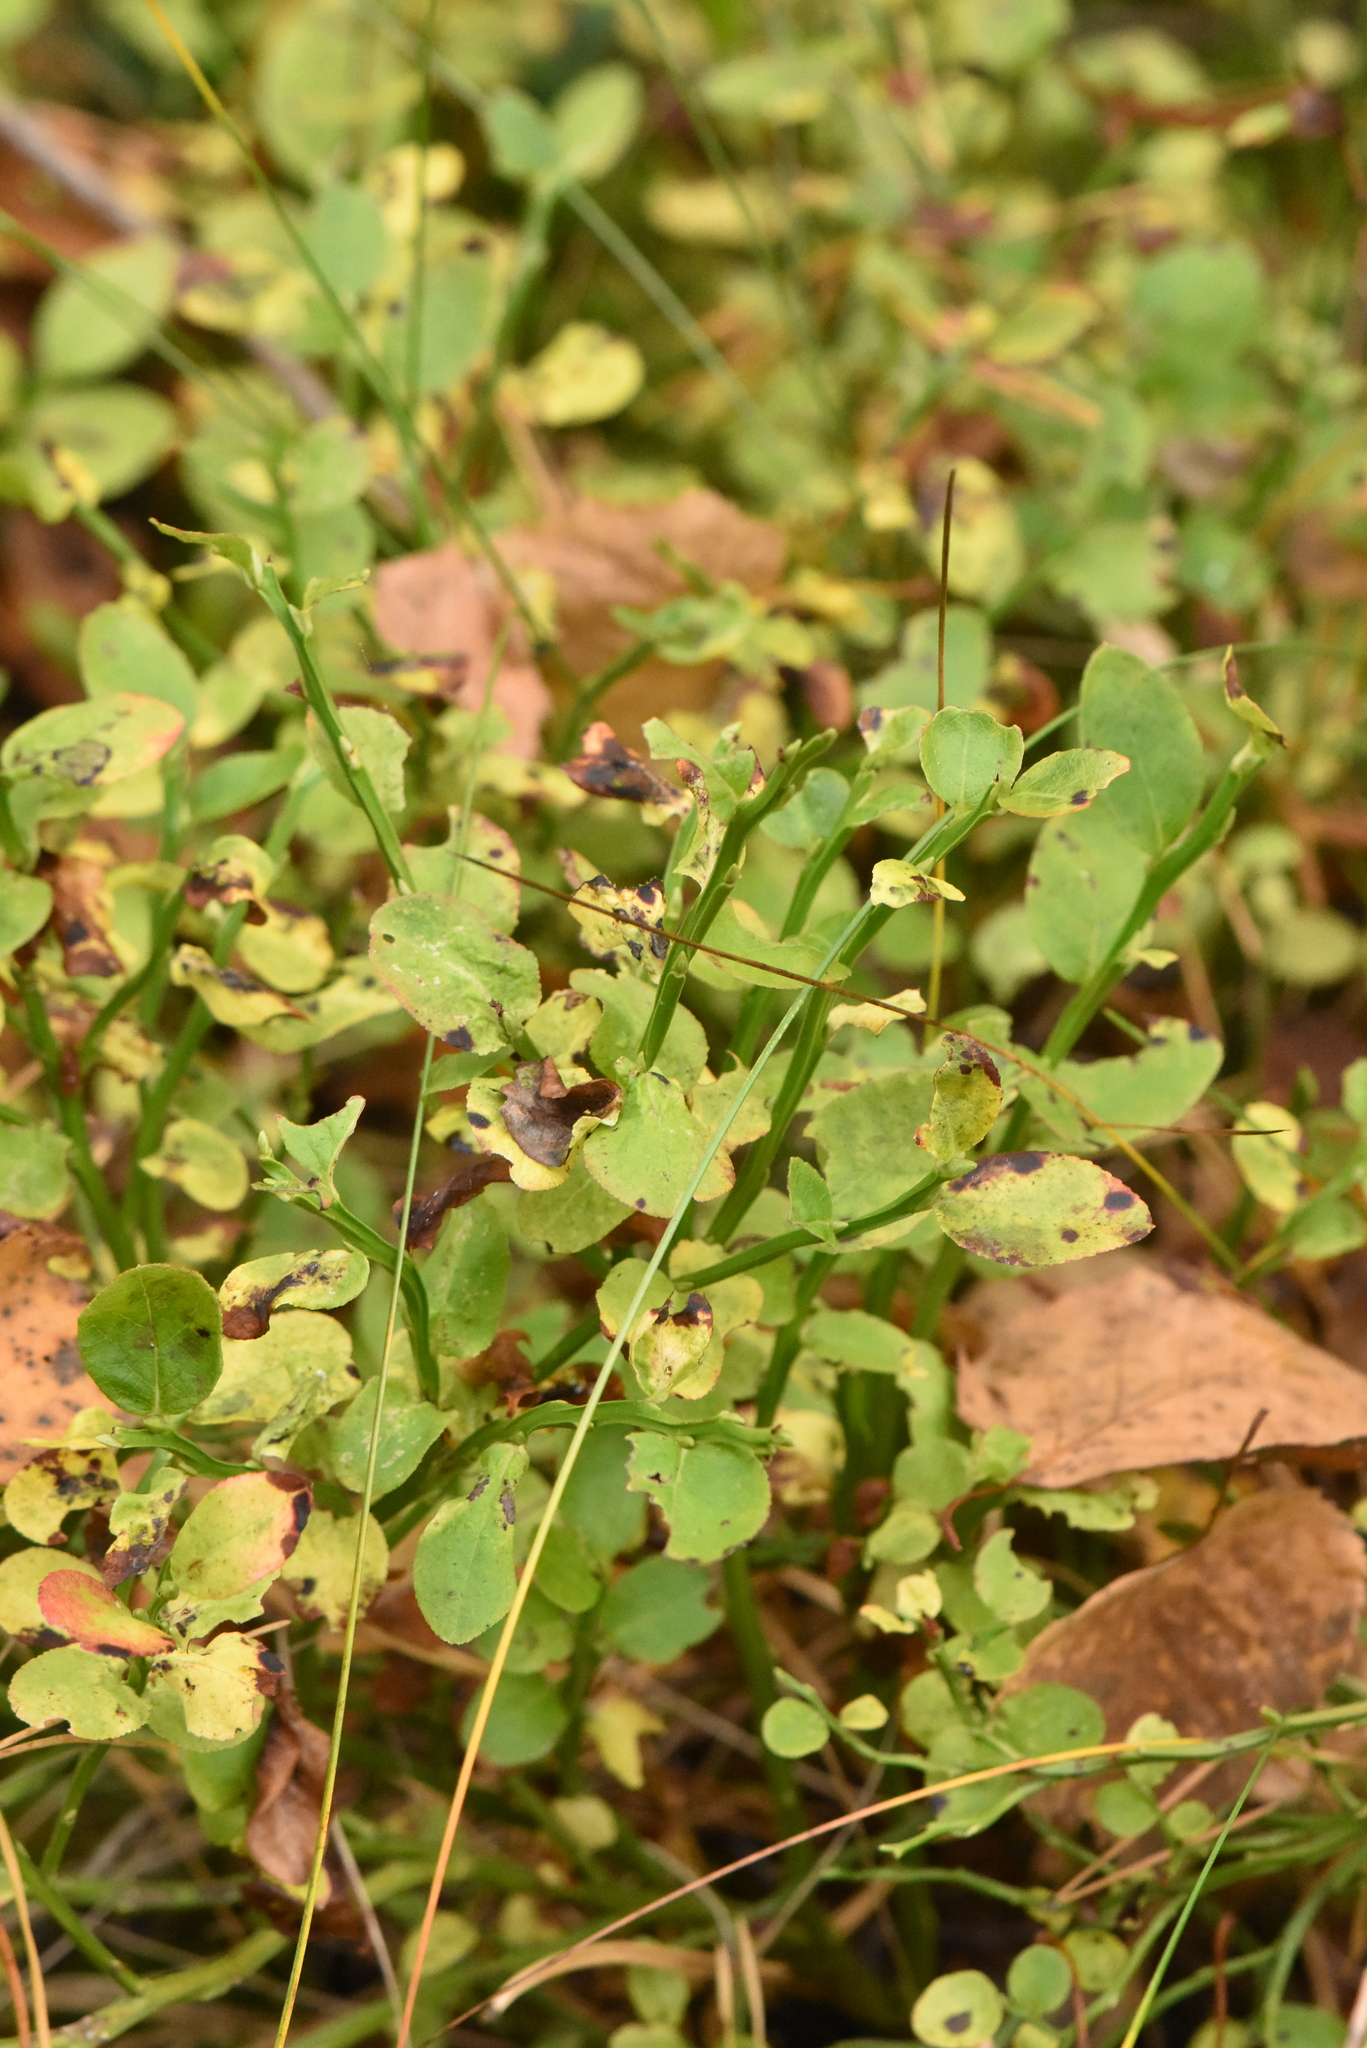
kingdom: Plantae
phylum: Tracheophyta
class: Magnoliopsida
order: Ericales
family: Ericaceae
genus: Vaccinium
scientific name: Vaccinium myrtillus
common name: Bilberry
